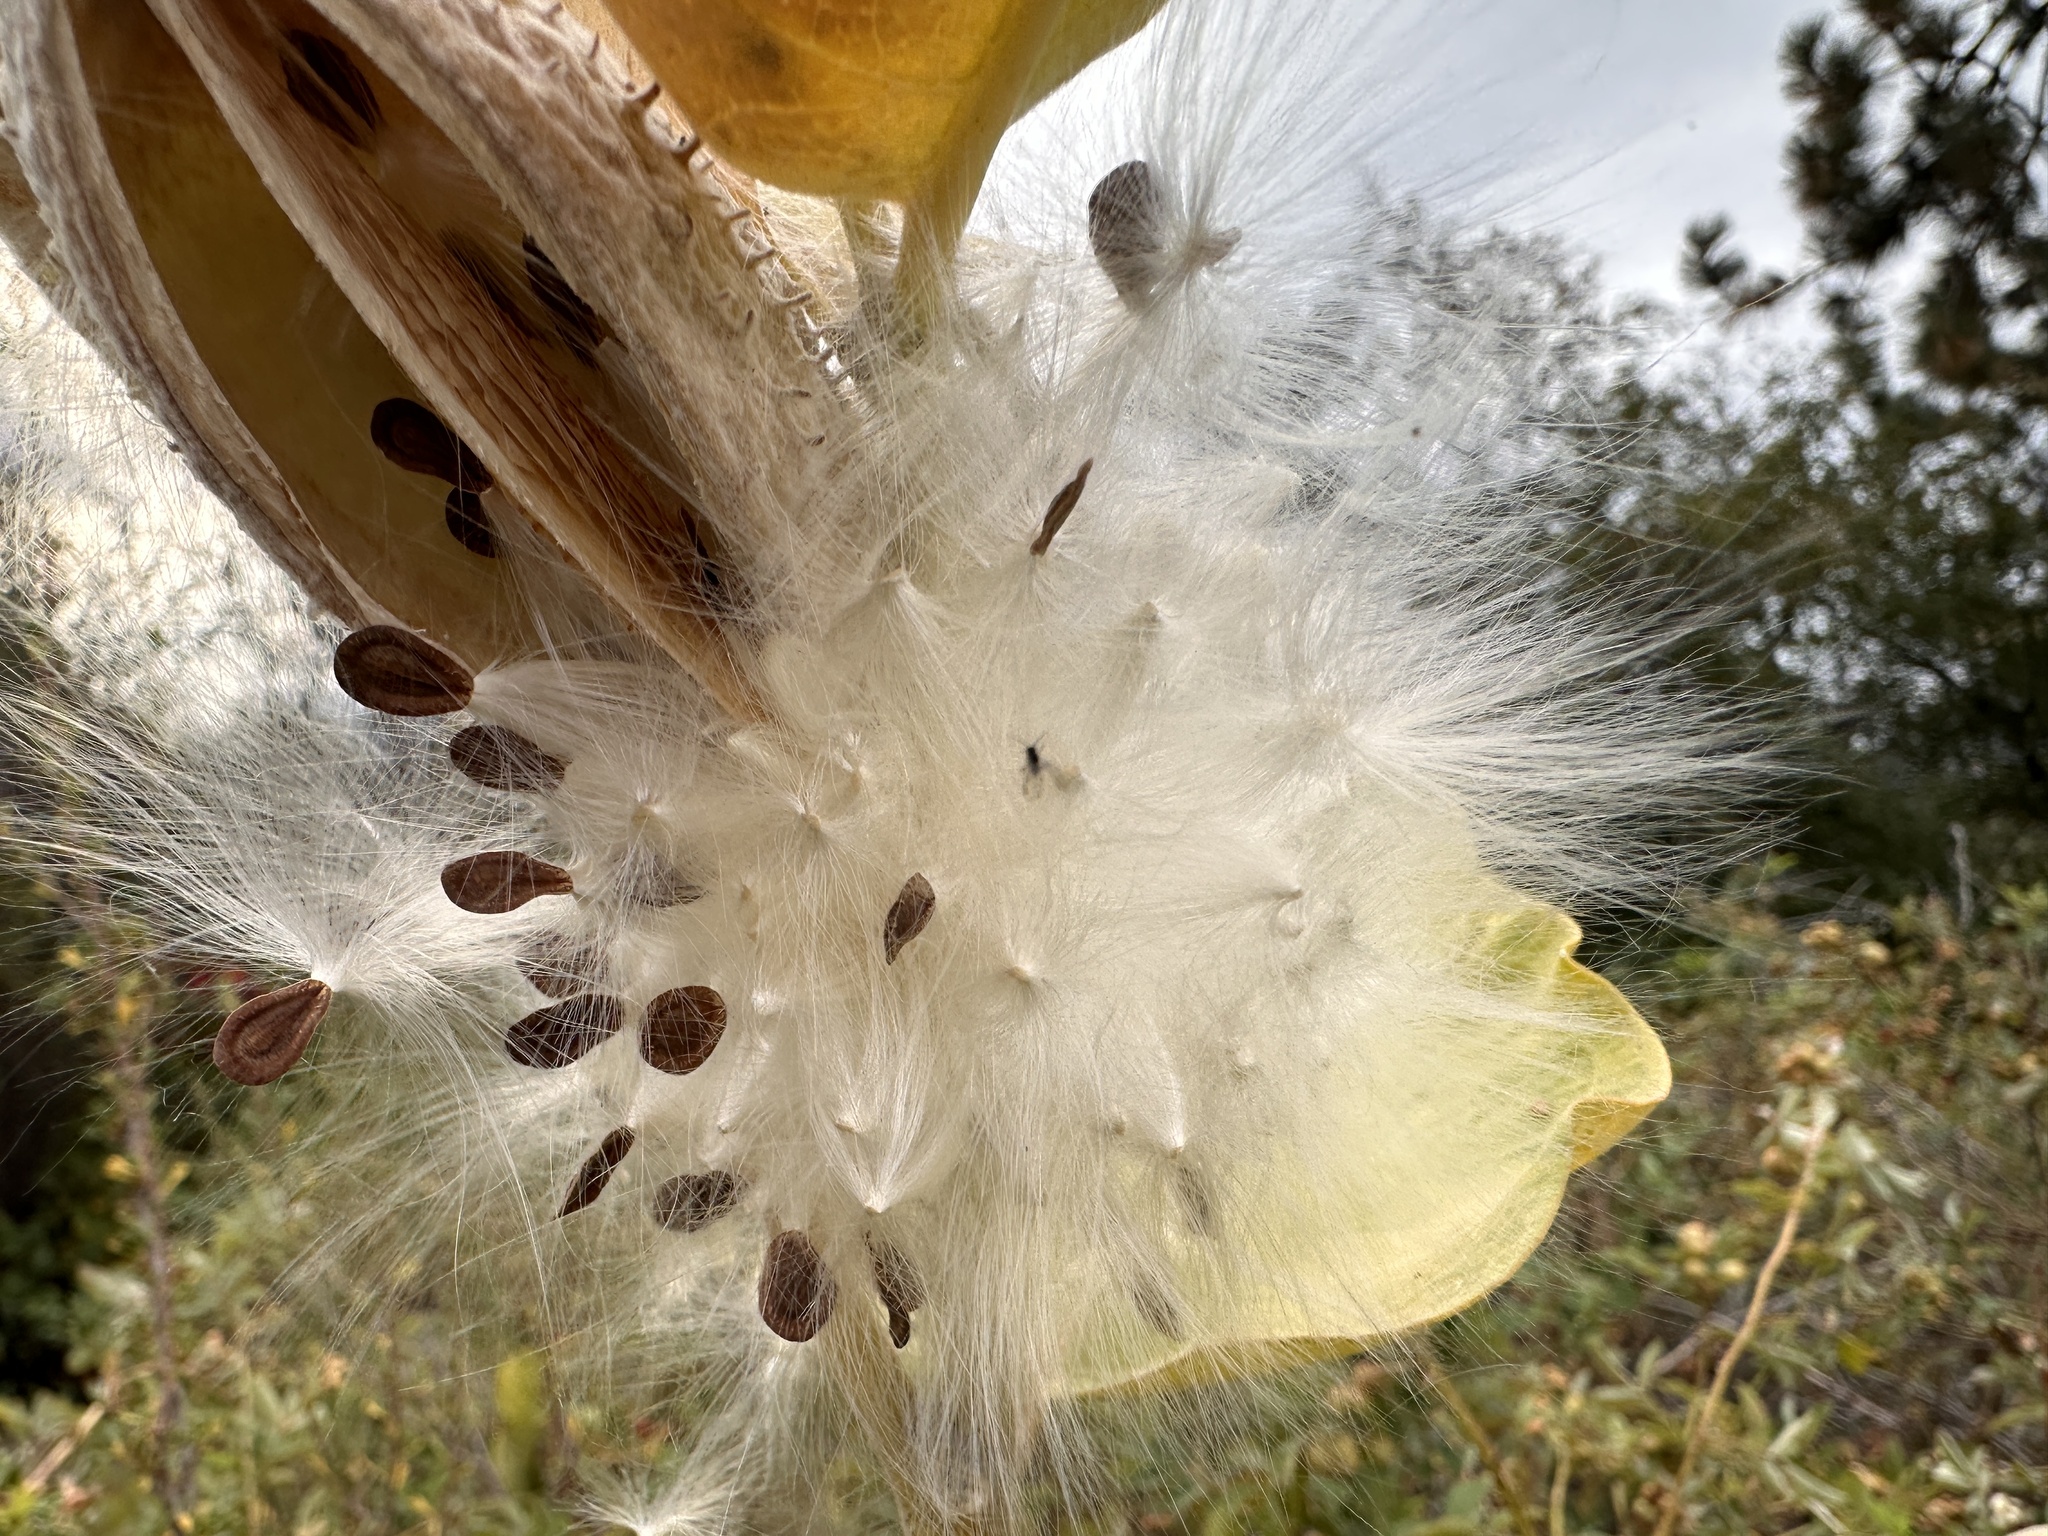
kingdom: Plantae
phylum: Tracheophyta
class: Magnoliopsida
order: Gentianales
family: Apocynaceae
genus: Asclepias
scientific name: Asclepias speciosa
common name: Showy milkweed
